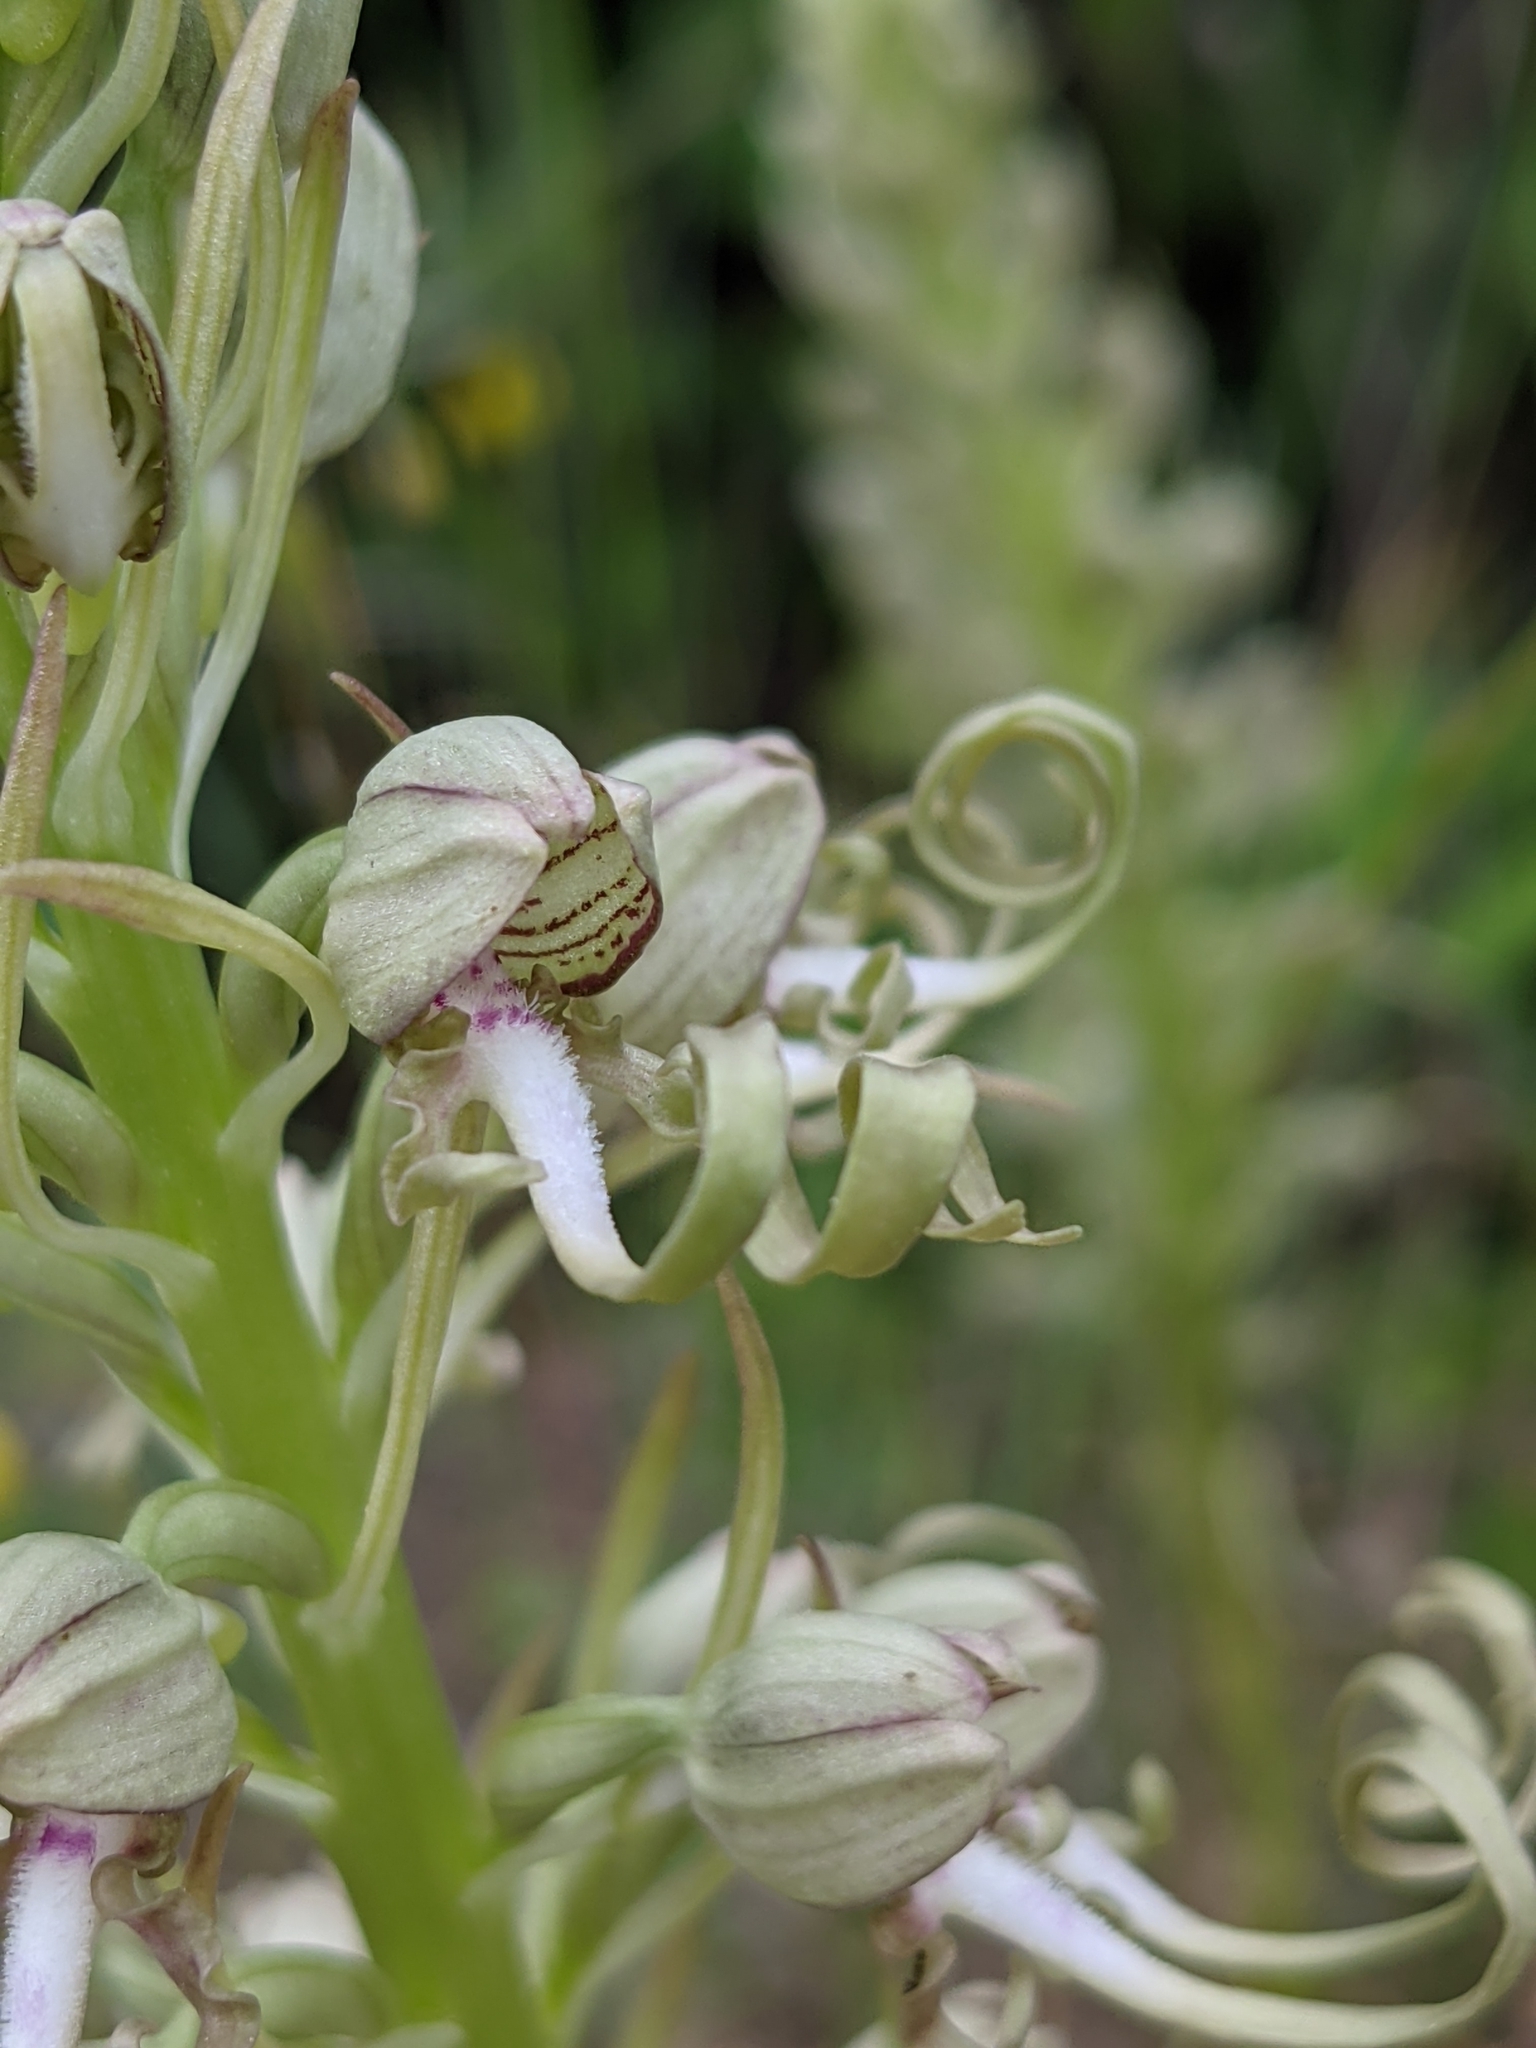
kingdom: Plantae
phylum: Tracheophyta
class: Liliopsida
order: Asparagales
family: Orchidaceae
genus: Himantoglossum
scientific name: Himantoglossum hircinum
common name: Lizard orchid
